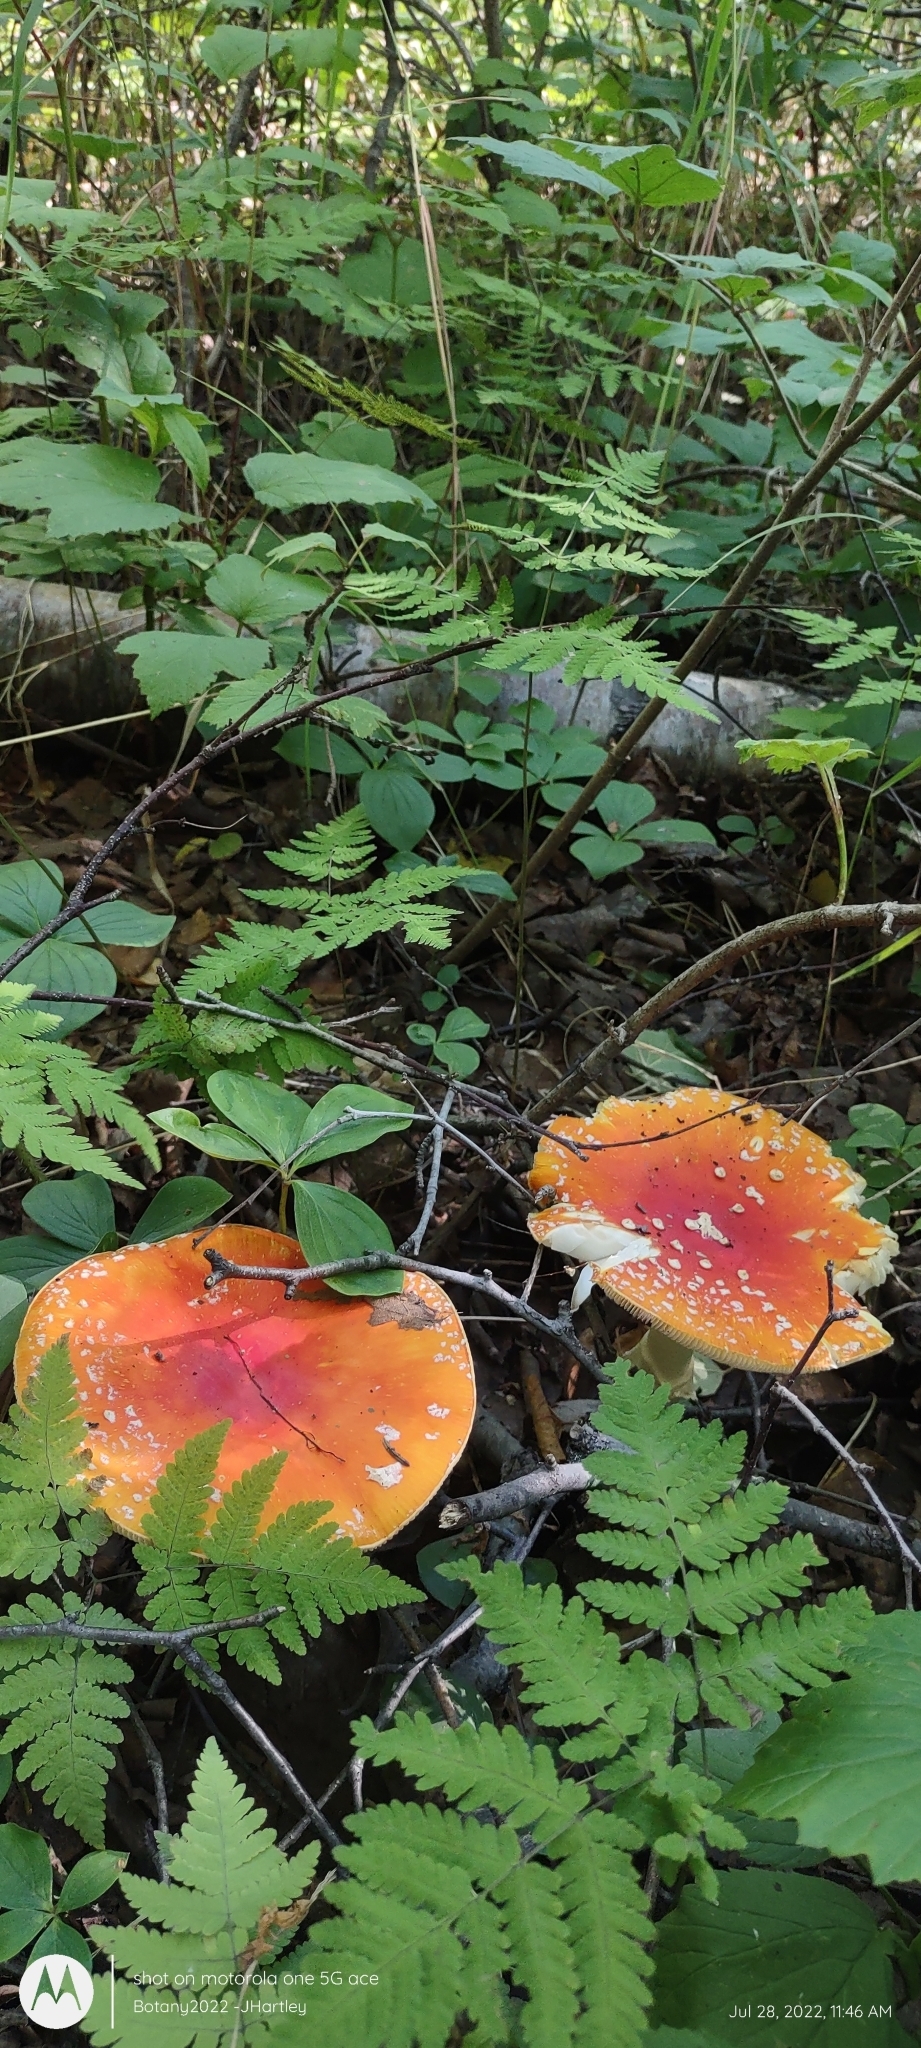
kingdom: Fungi
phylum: Basidiomycota
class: Agaricomycetes
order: Agaricales
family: Amanitaceae
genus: Amanita
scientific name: Amanita muscaria
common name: Fly agaric
